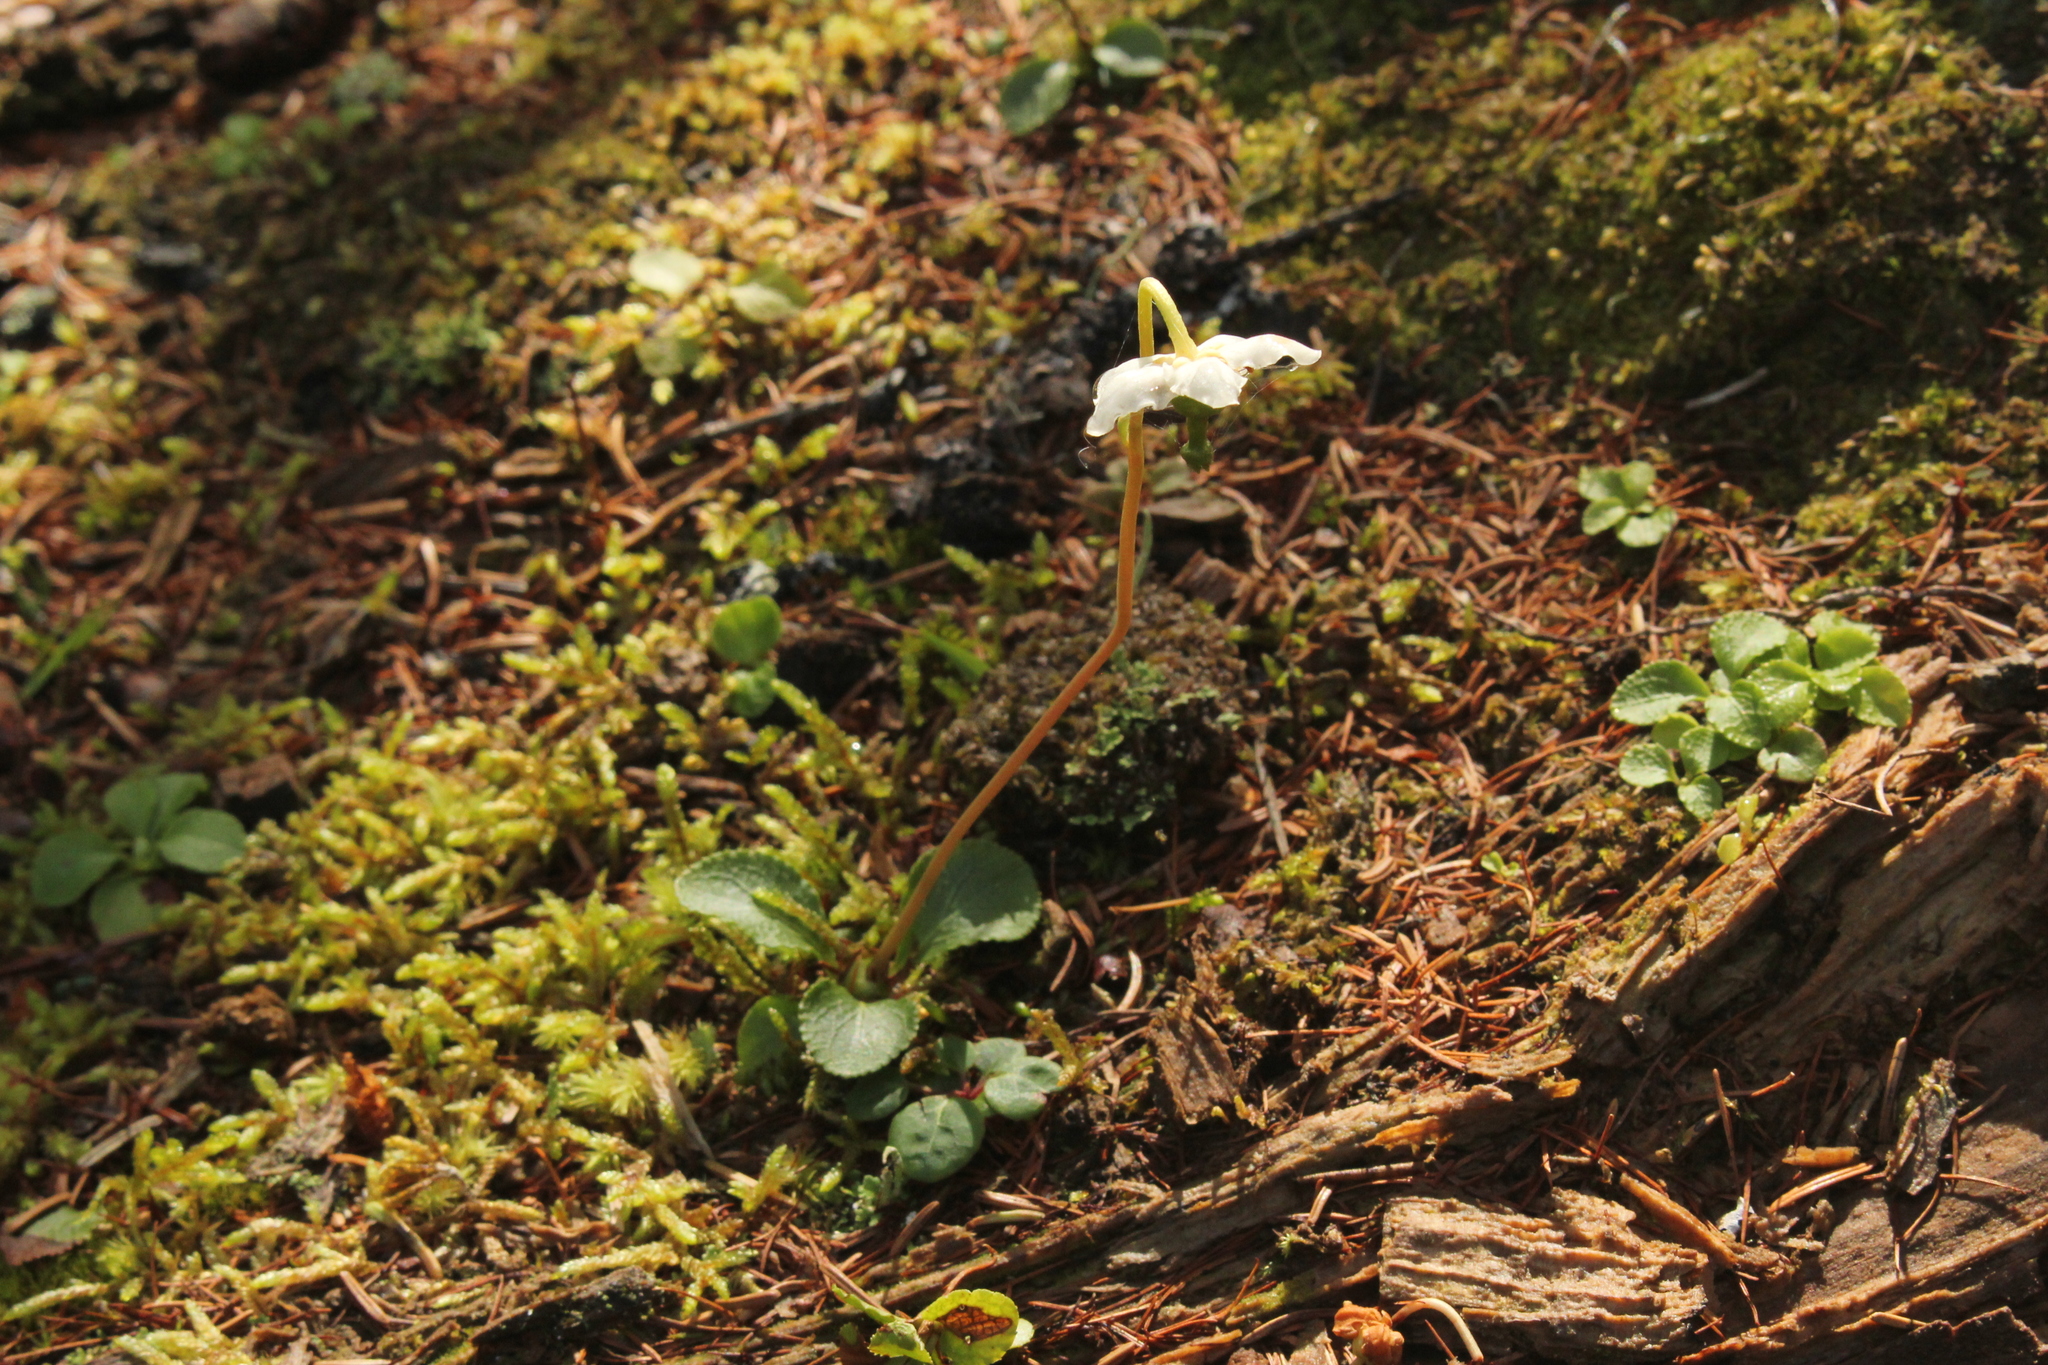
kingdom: Plantae
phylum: Tracheophyta
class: Magnoliopsida
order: Ericales
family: Ericaceae
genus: Moneses
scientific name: Moneses uniflora
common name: One-flowered wintergreen
